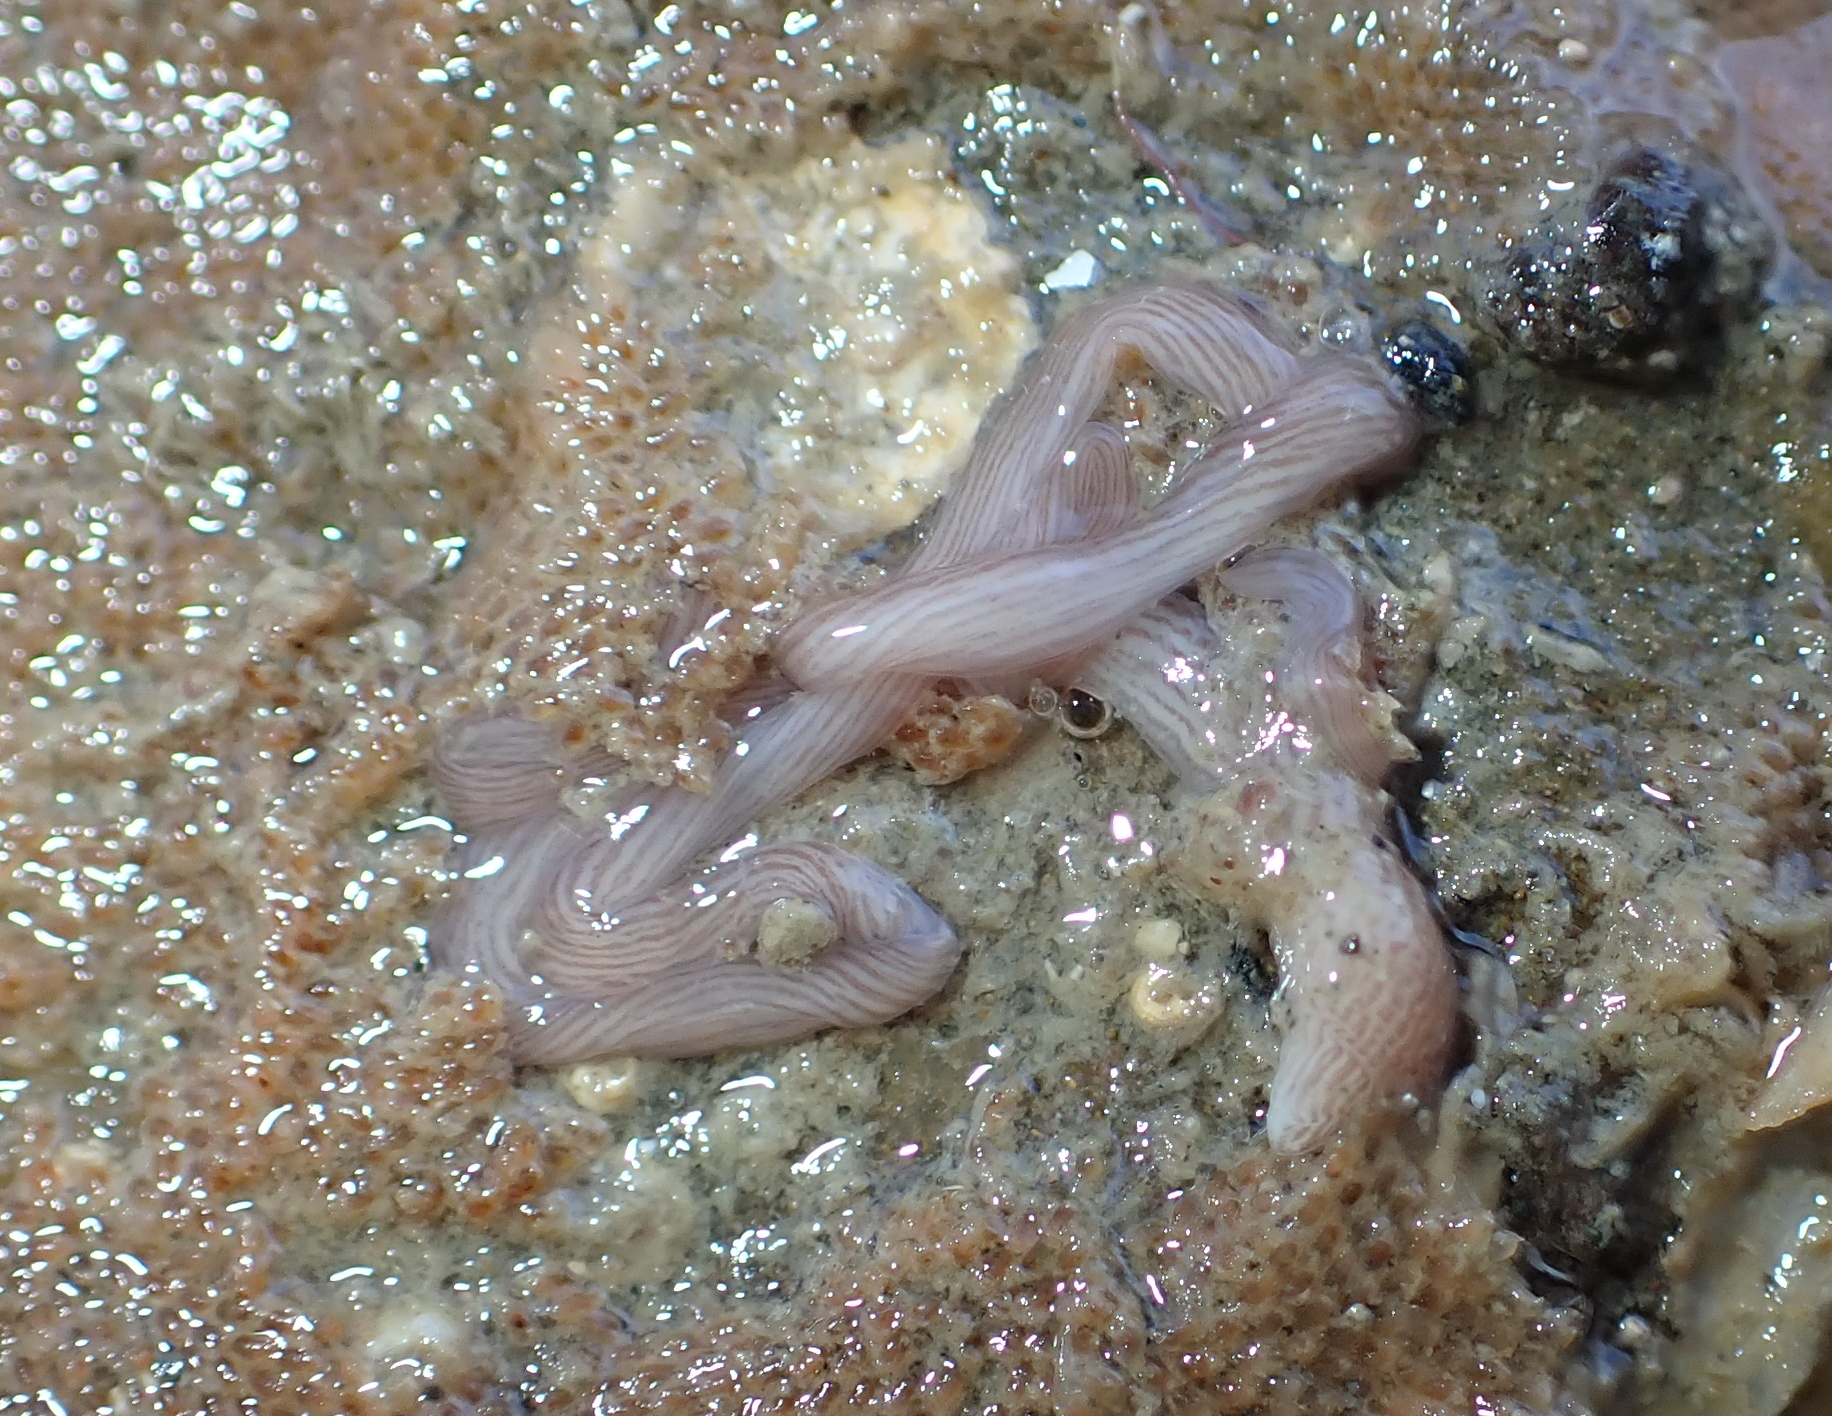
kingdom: Animalia
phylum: Nemertea
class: Pilidiophora
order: Heteronemertea
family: Valenciniidae
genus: Baseodiscus
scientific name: Baseodiscus delineatus
